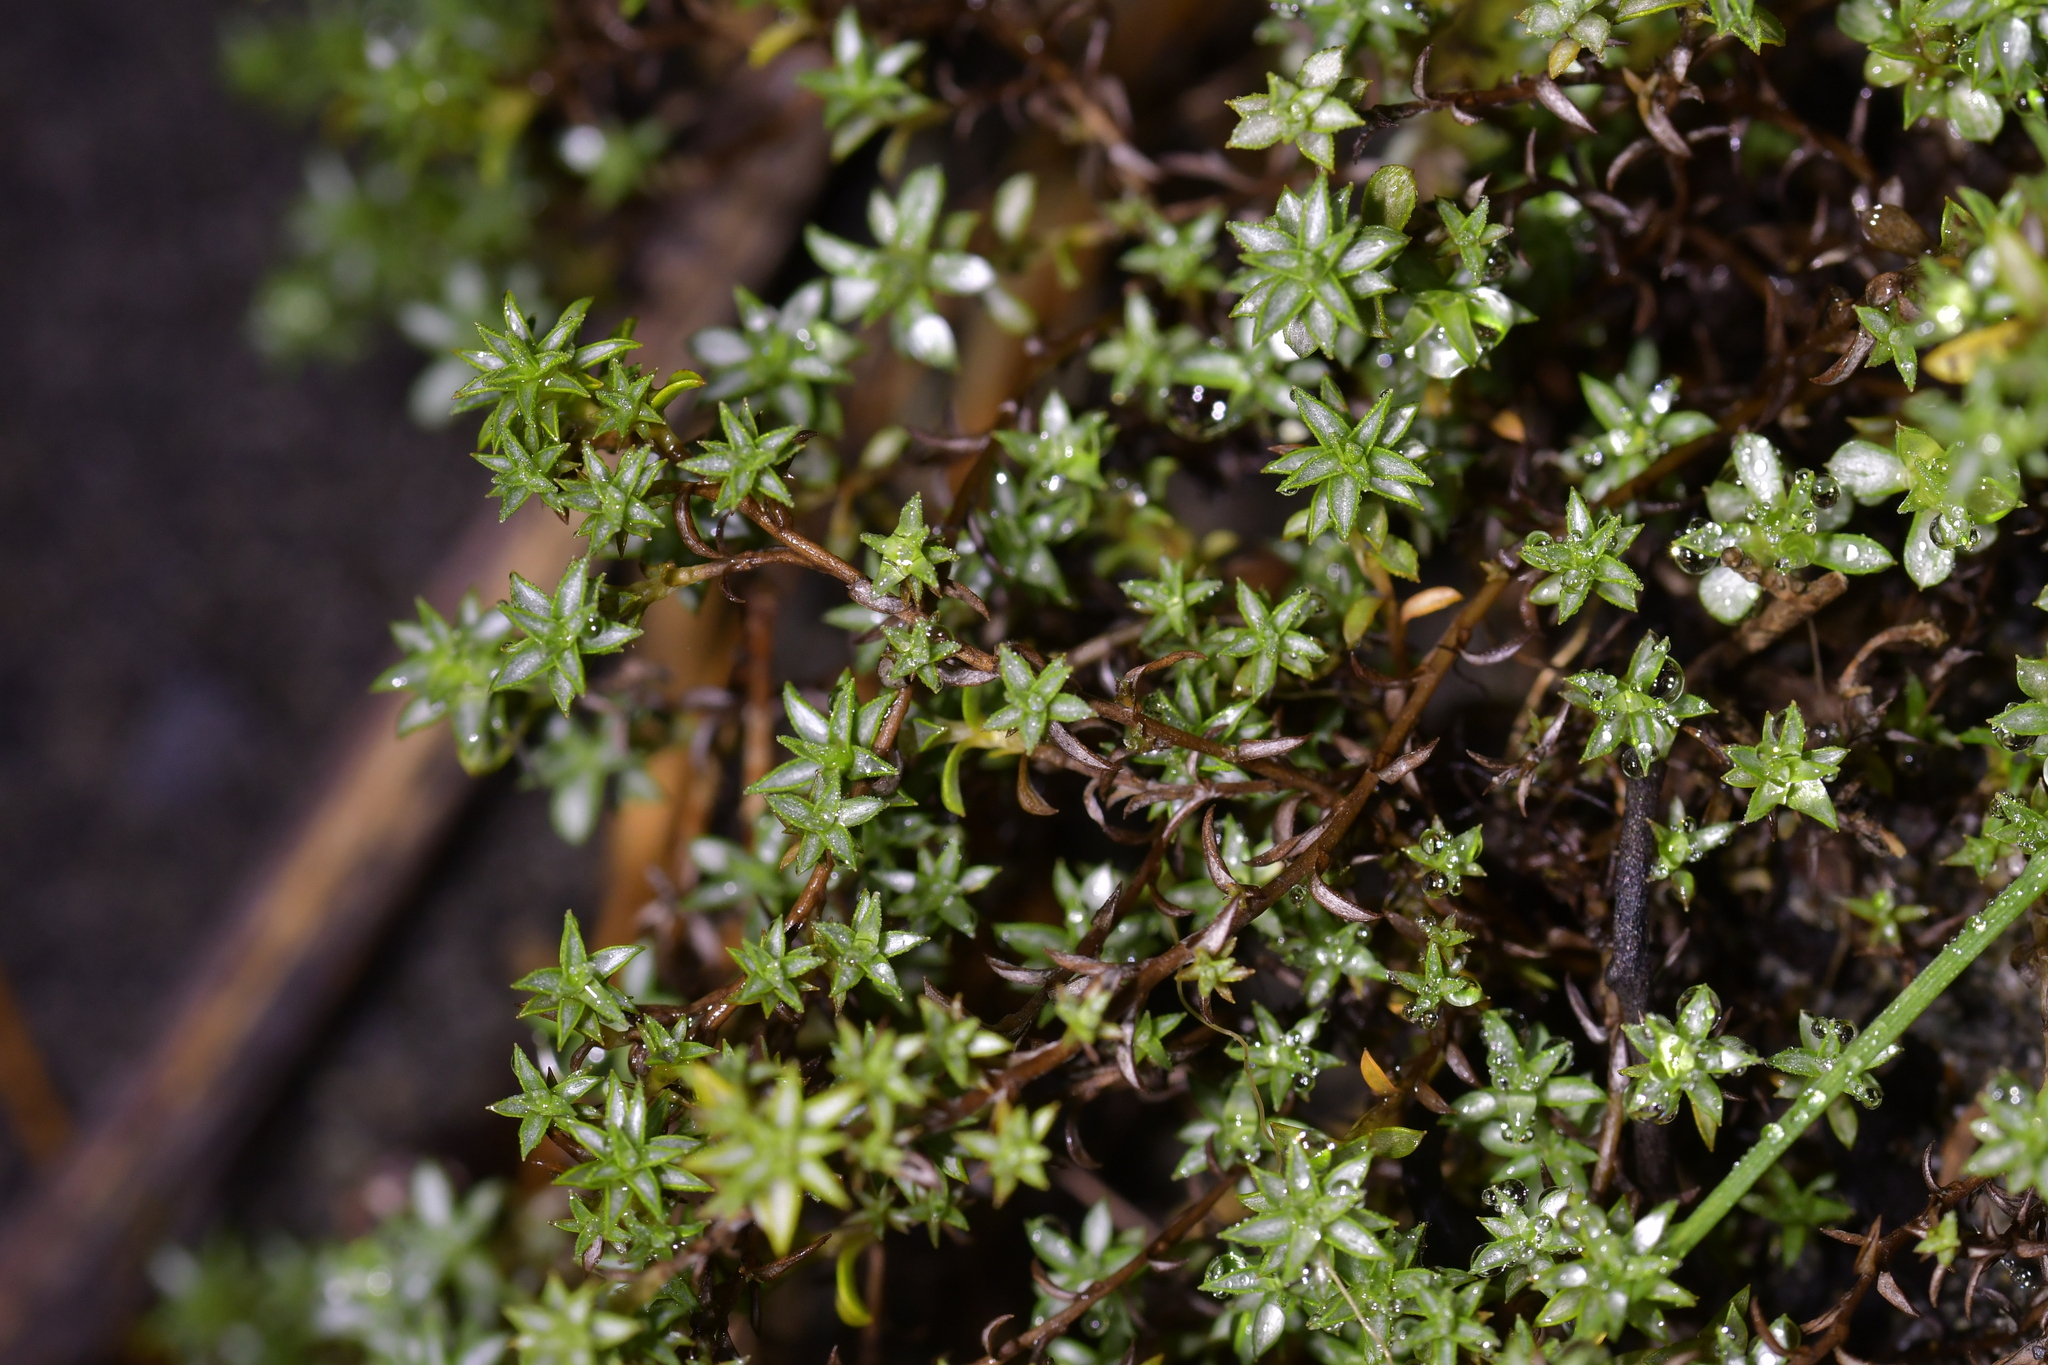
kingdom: Plantae
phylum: Tracheophyta
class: Magnoliopsida
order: Asterales
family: Asteraceae
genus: Raoulia
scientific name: Raoulia tenuicaulis
